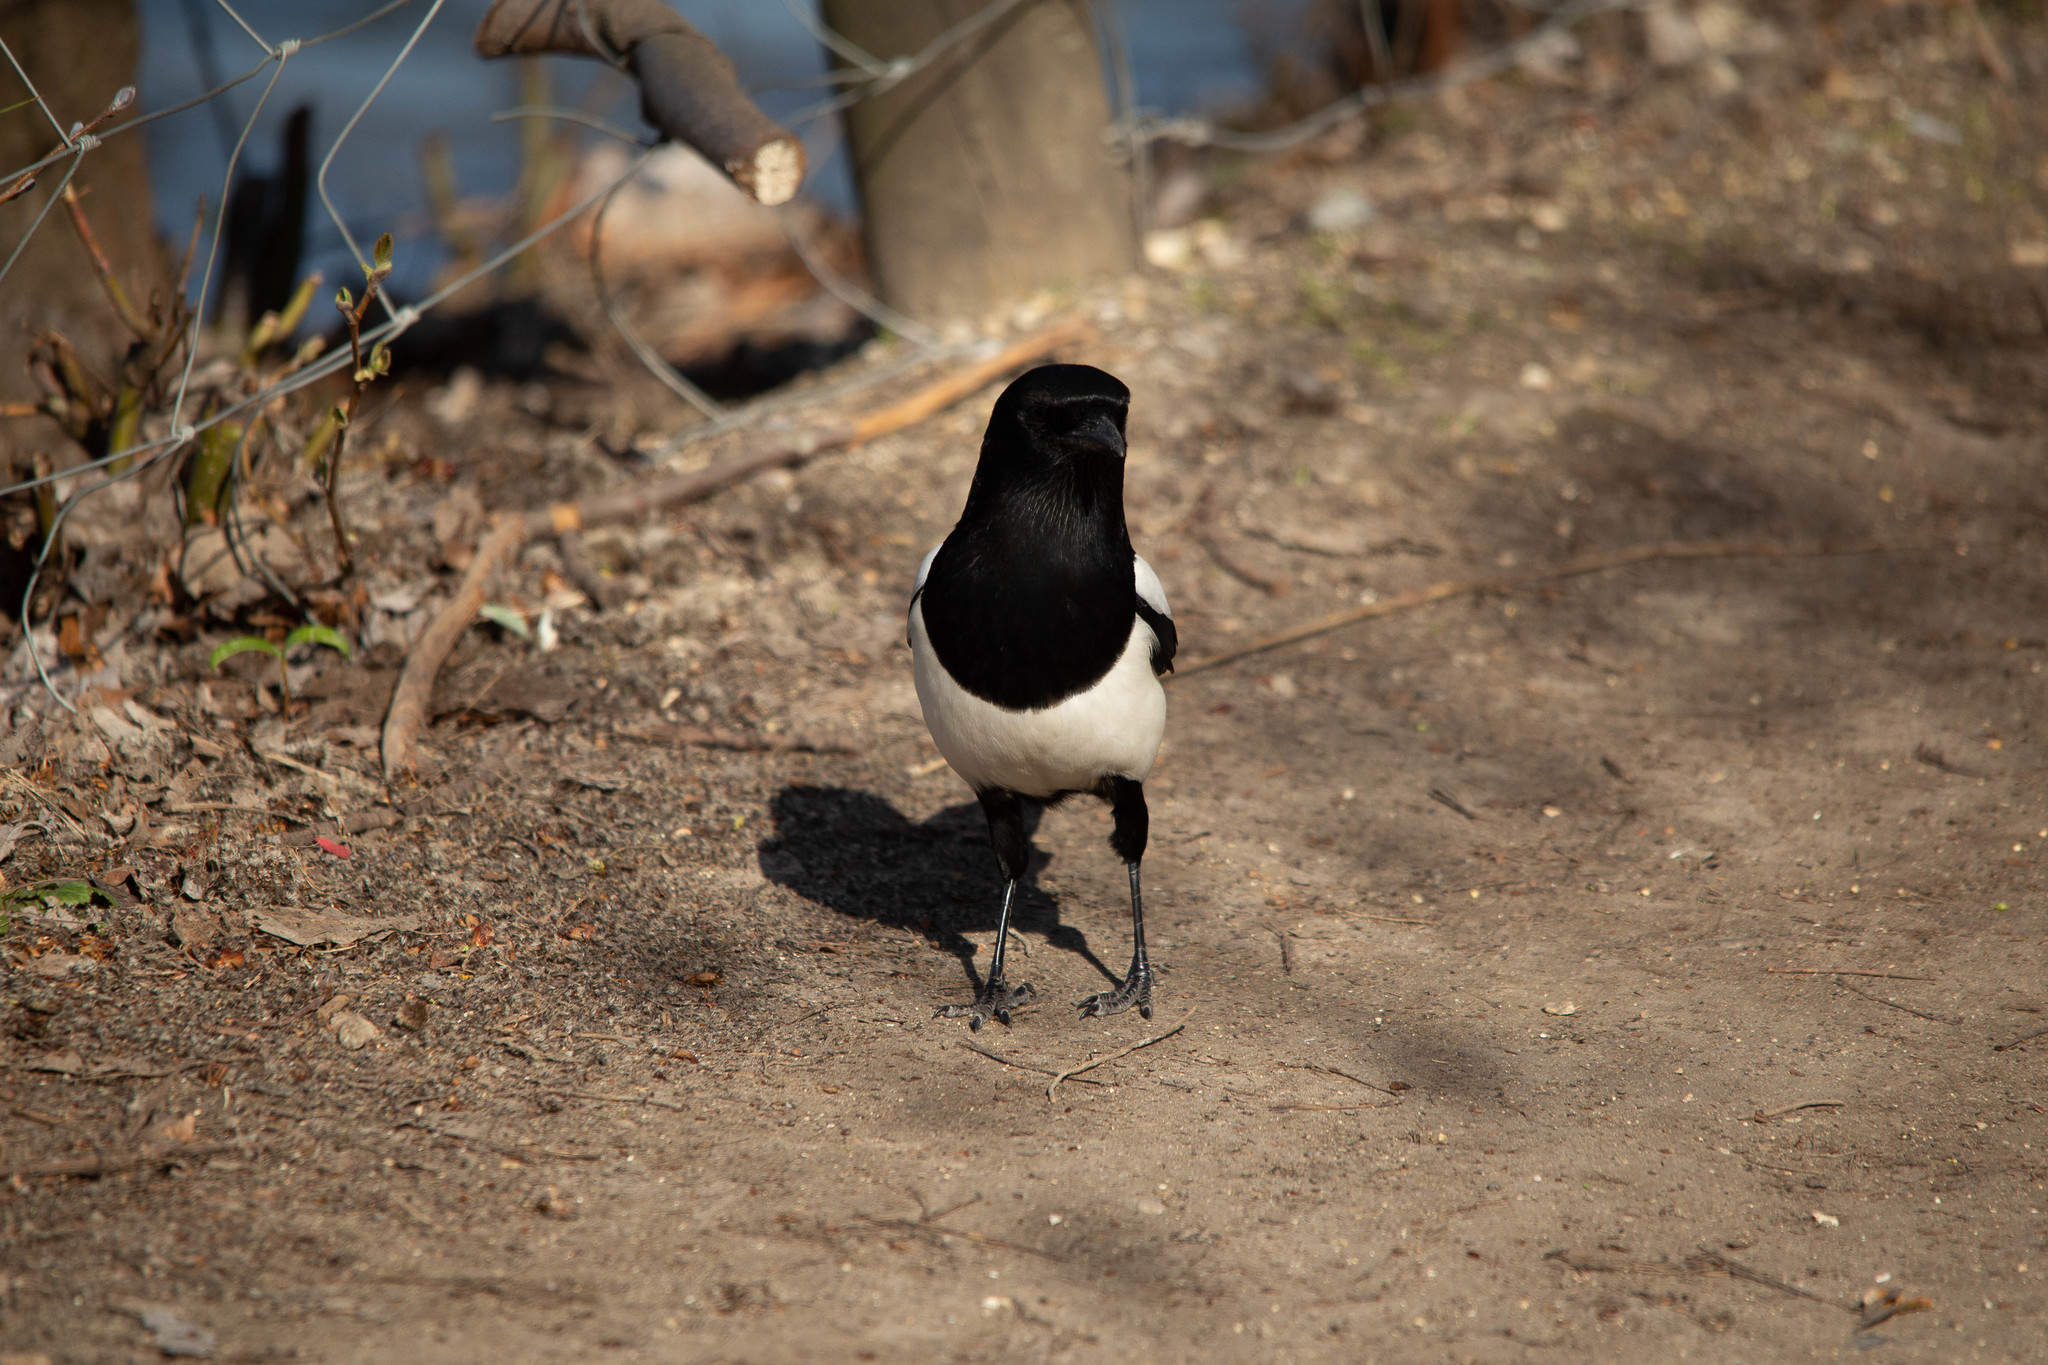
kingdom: Animalia
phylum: Chordata
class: Aves
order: Passeriformes
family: Corvidae
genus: Pica
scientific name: Pica pica
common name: Eurasian magpie
